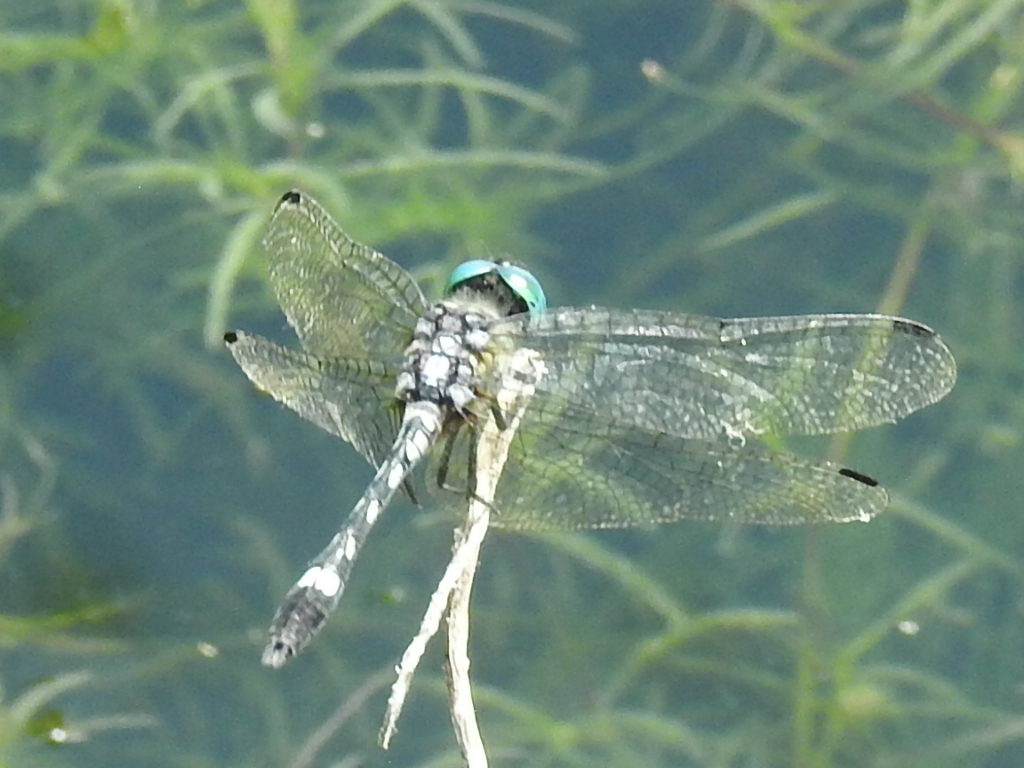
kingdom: Animalia
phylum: Arthropoda
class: Insecta
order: Odonata
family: Libellulidae
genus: Micrathyria
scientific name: Micrathyria hagenii
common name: Thornbush dasher
